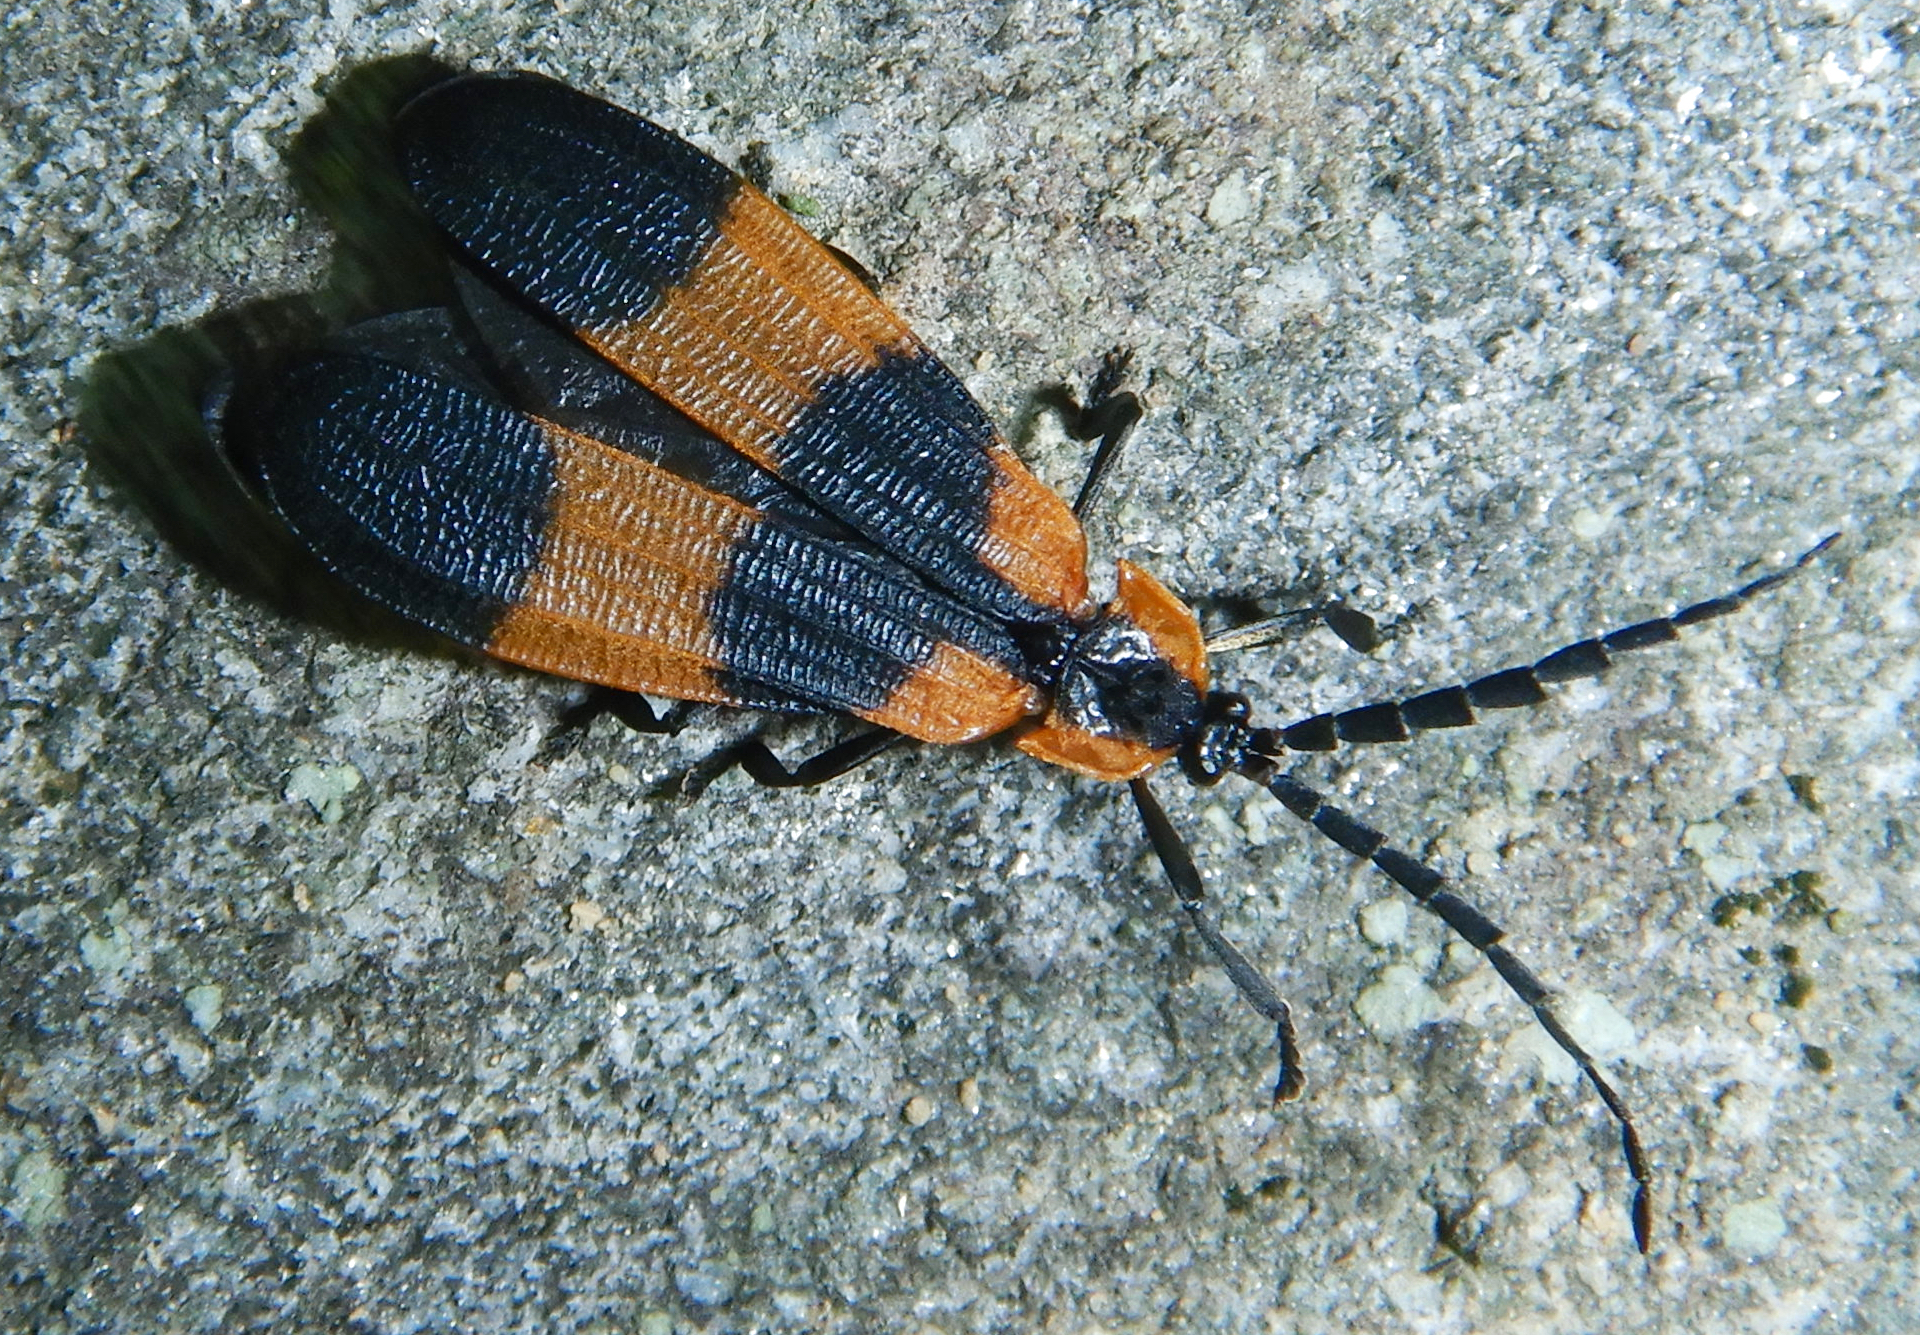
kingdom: Animalia
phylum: Arthropoda
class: Insecta
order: Coleoptera
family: Lycidae
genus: Calopteron
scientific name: Calopteron reticulatum
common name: Banded net-winged beetle
